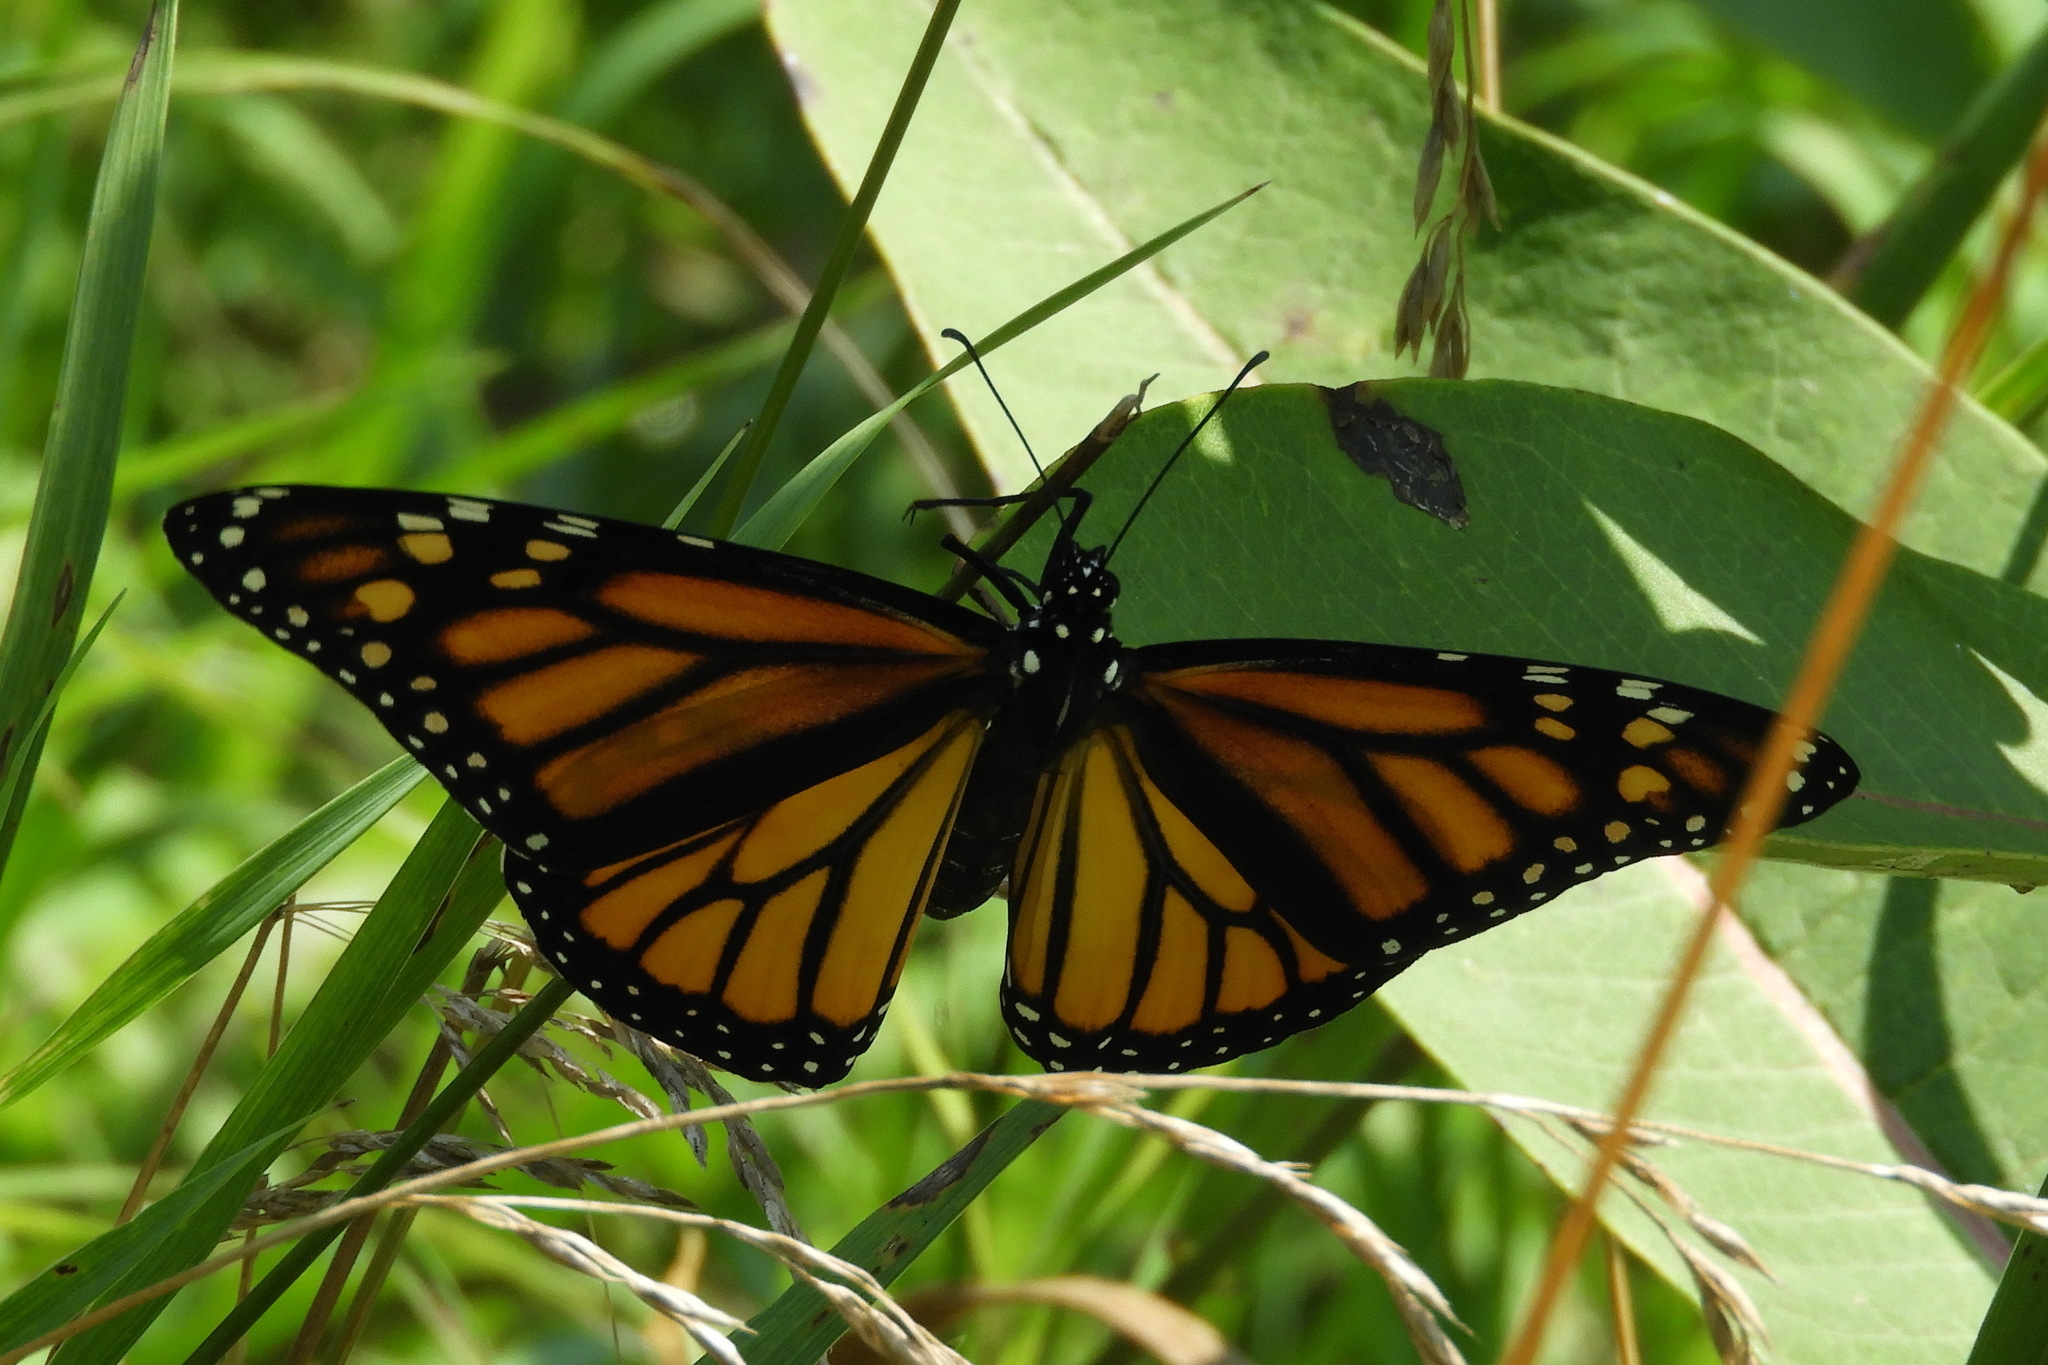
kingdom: Animalia
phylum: Arthropoda
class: Insecta
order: Lepidoptera
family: Nymphalidae
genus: Danaus
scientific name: Danaus plexippus
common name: Monarch
